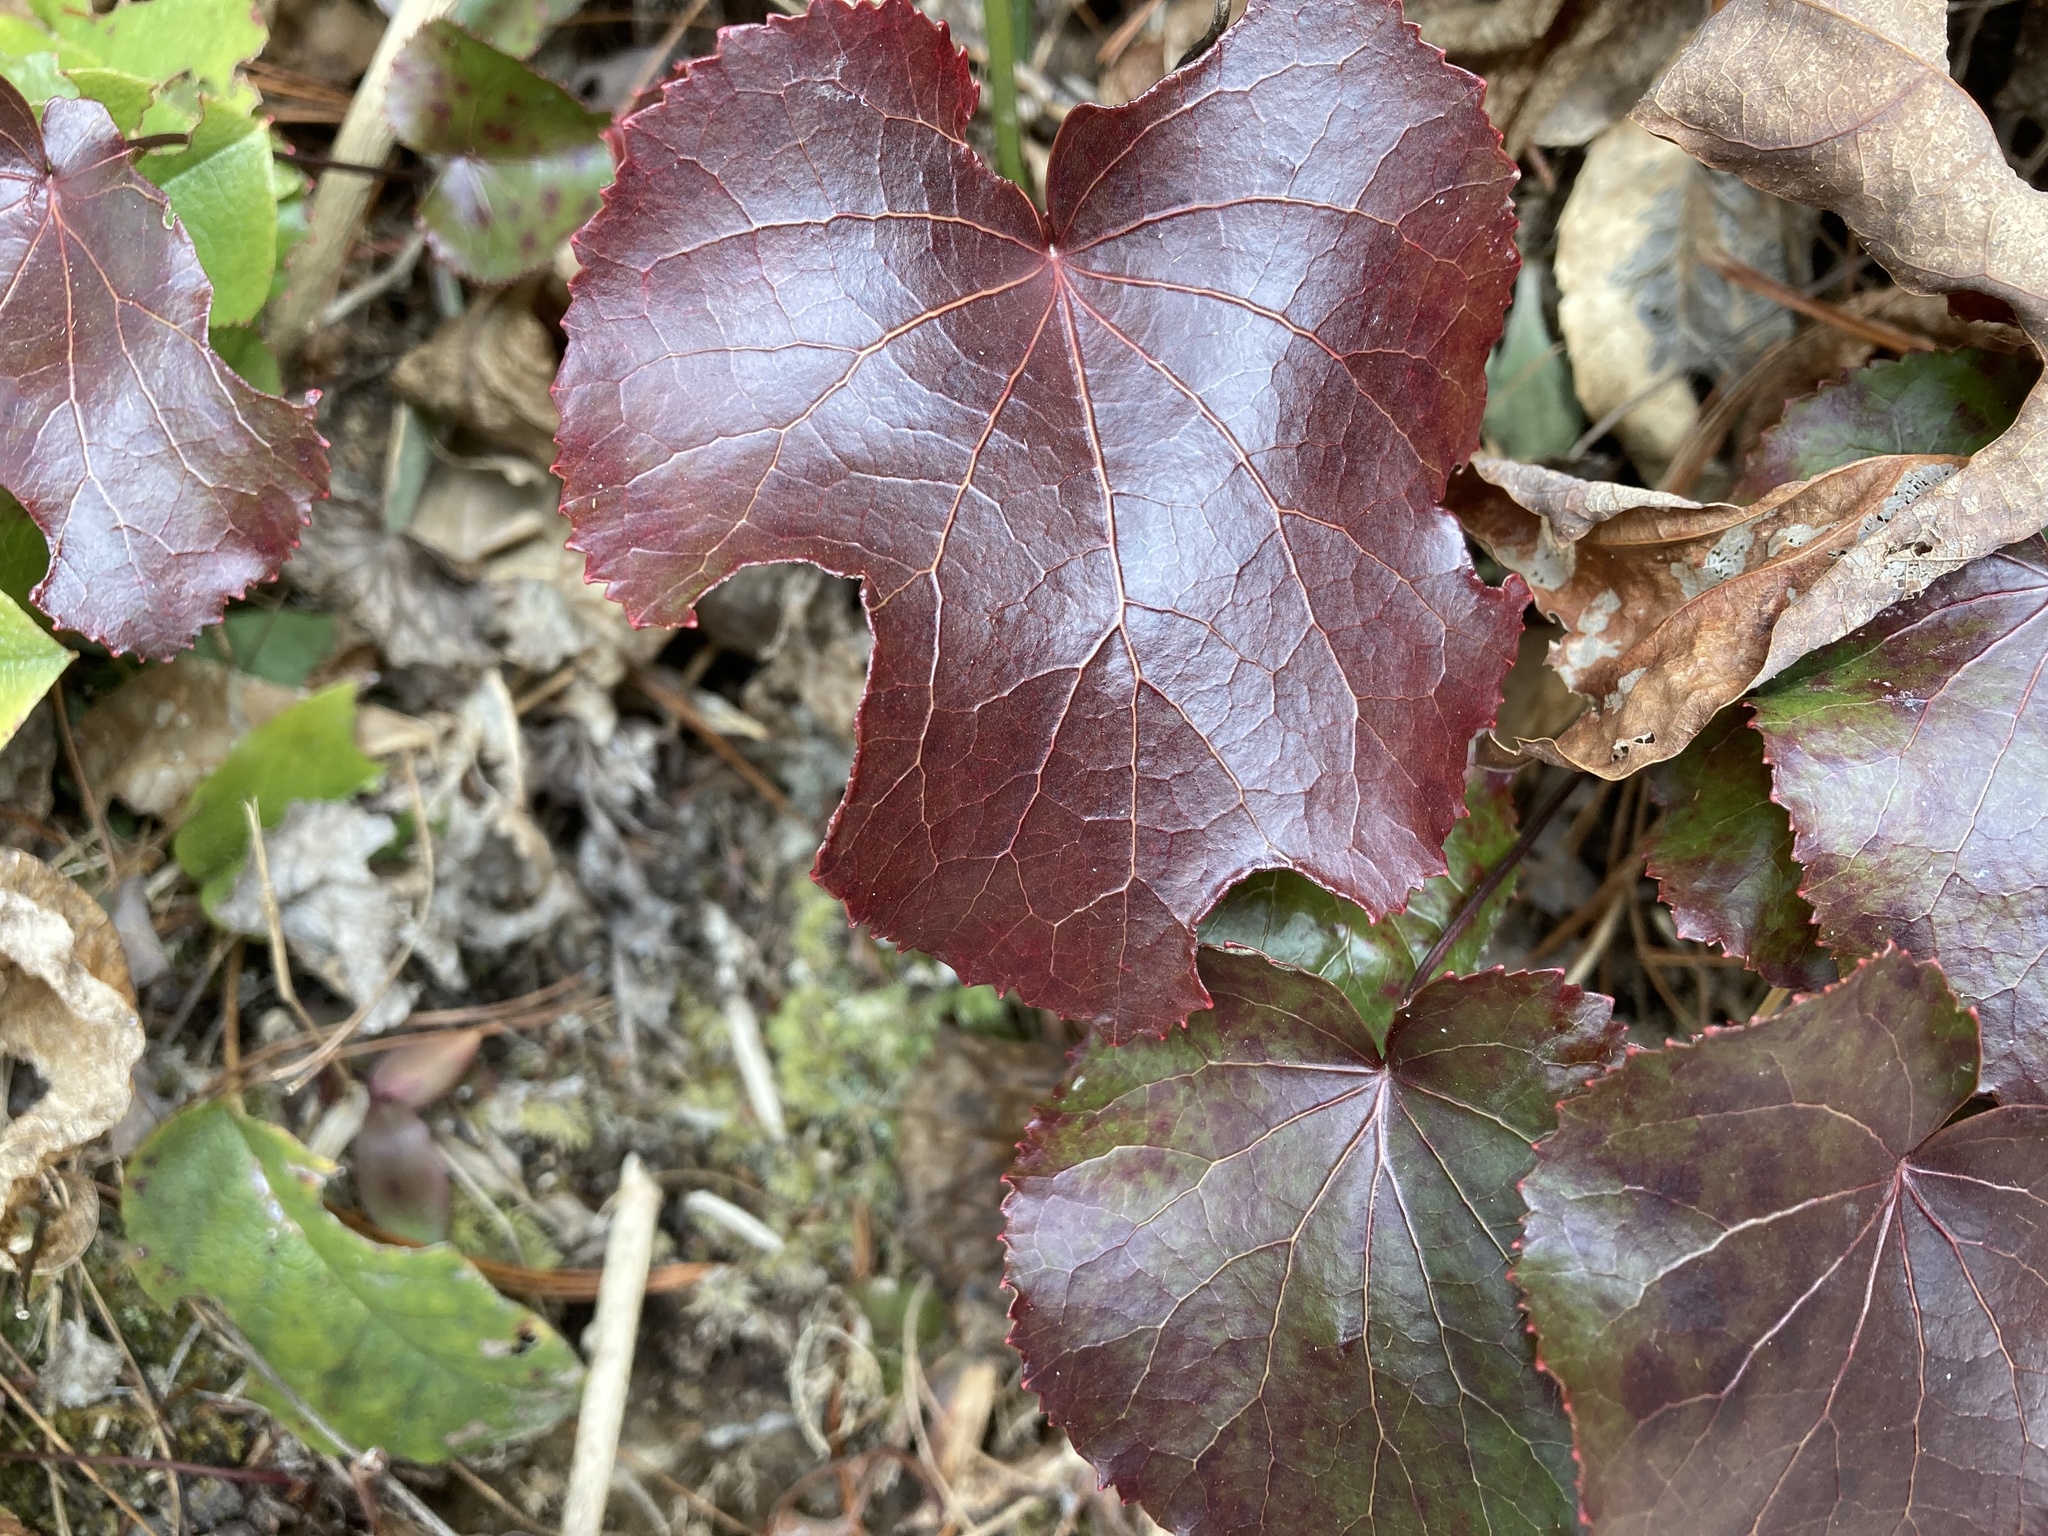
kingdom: Plantae
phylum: Tracheophyta
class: Magnoliopsida
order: Ericales
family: Diapensiaceae
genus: Galax
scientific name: Galax urceolata
